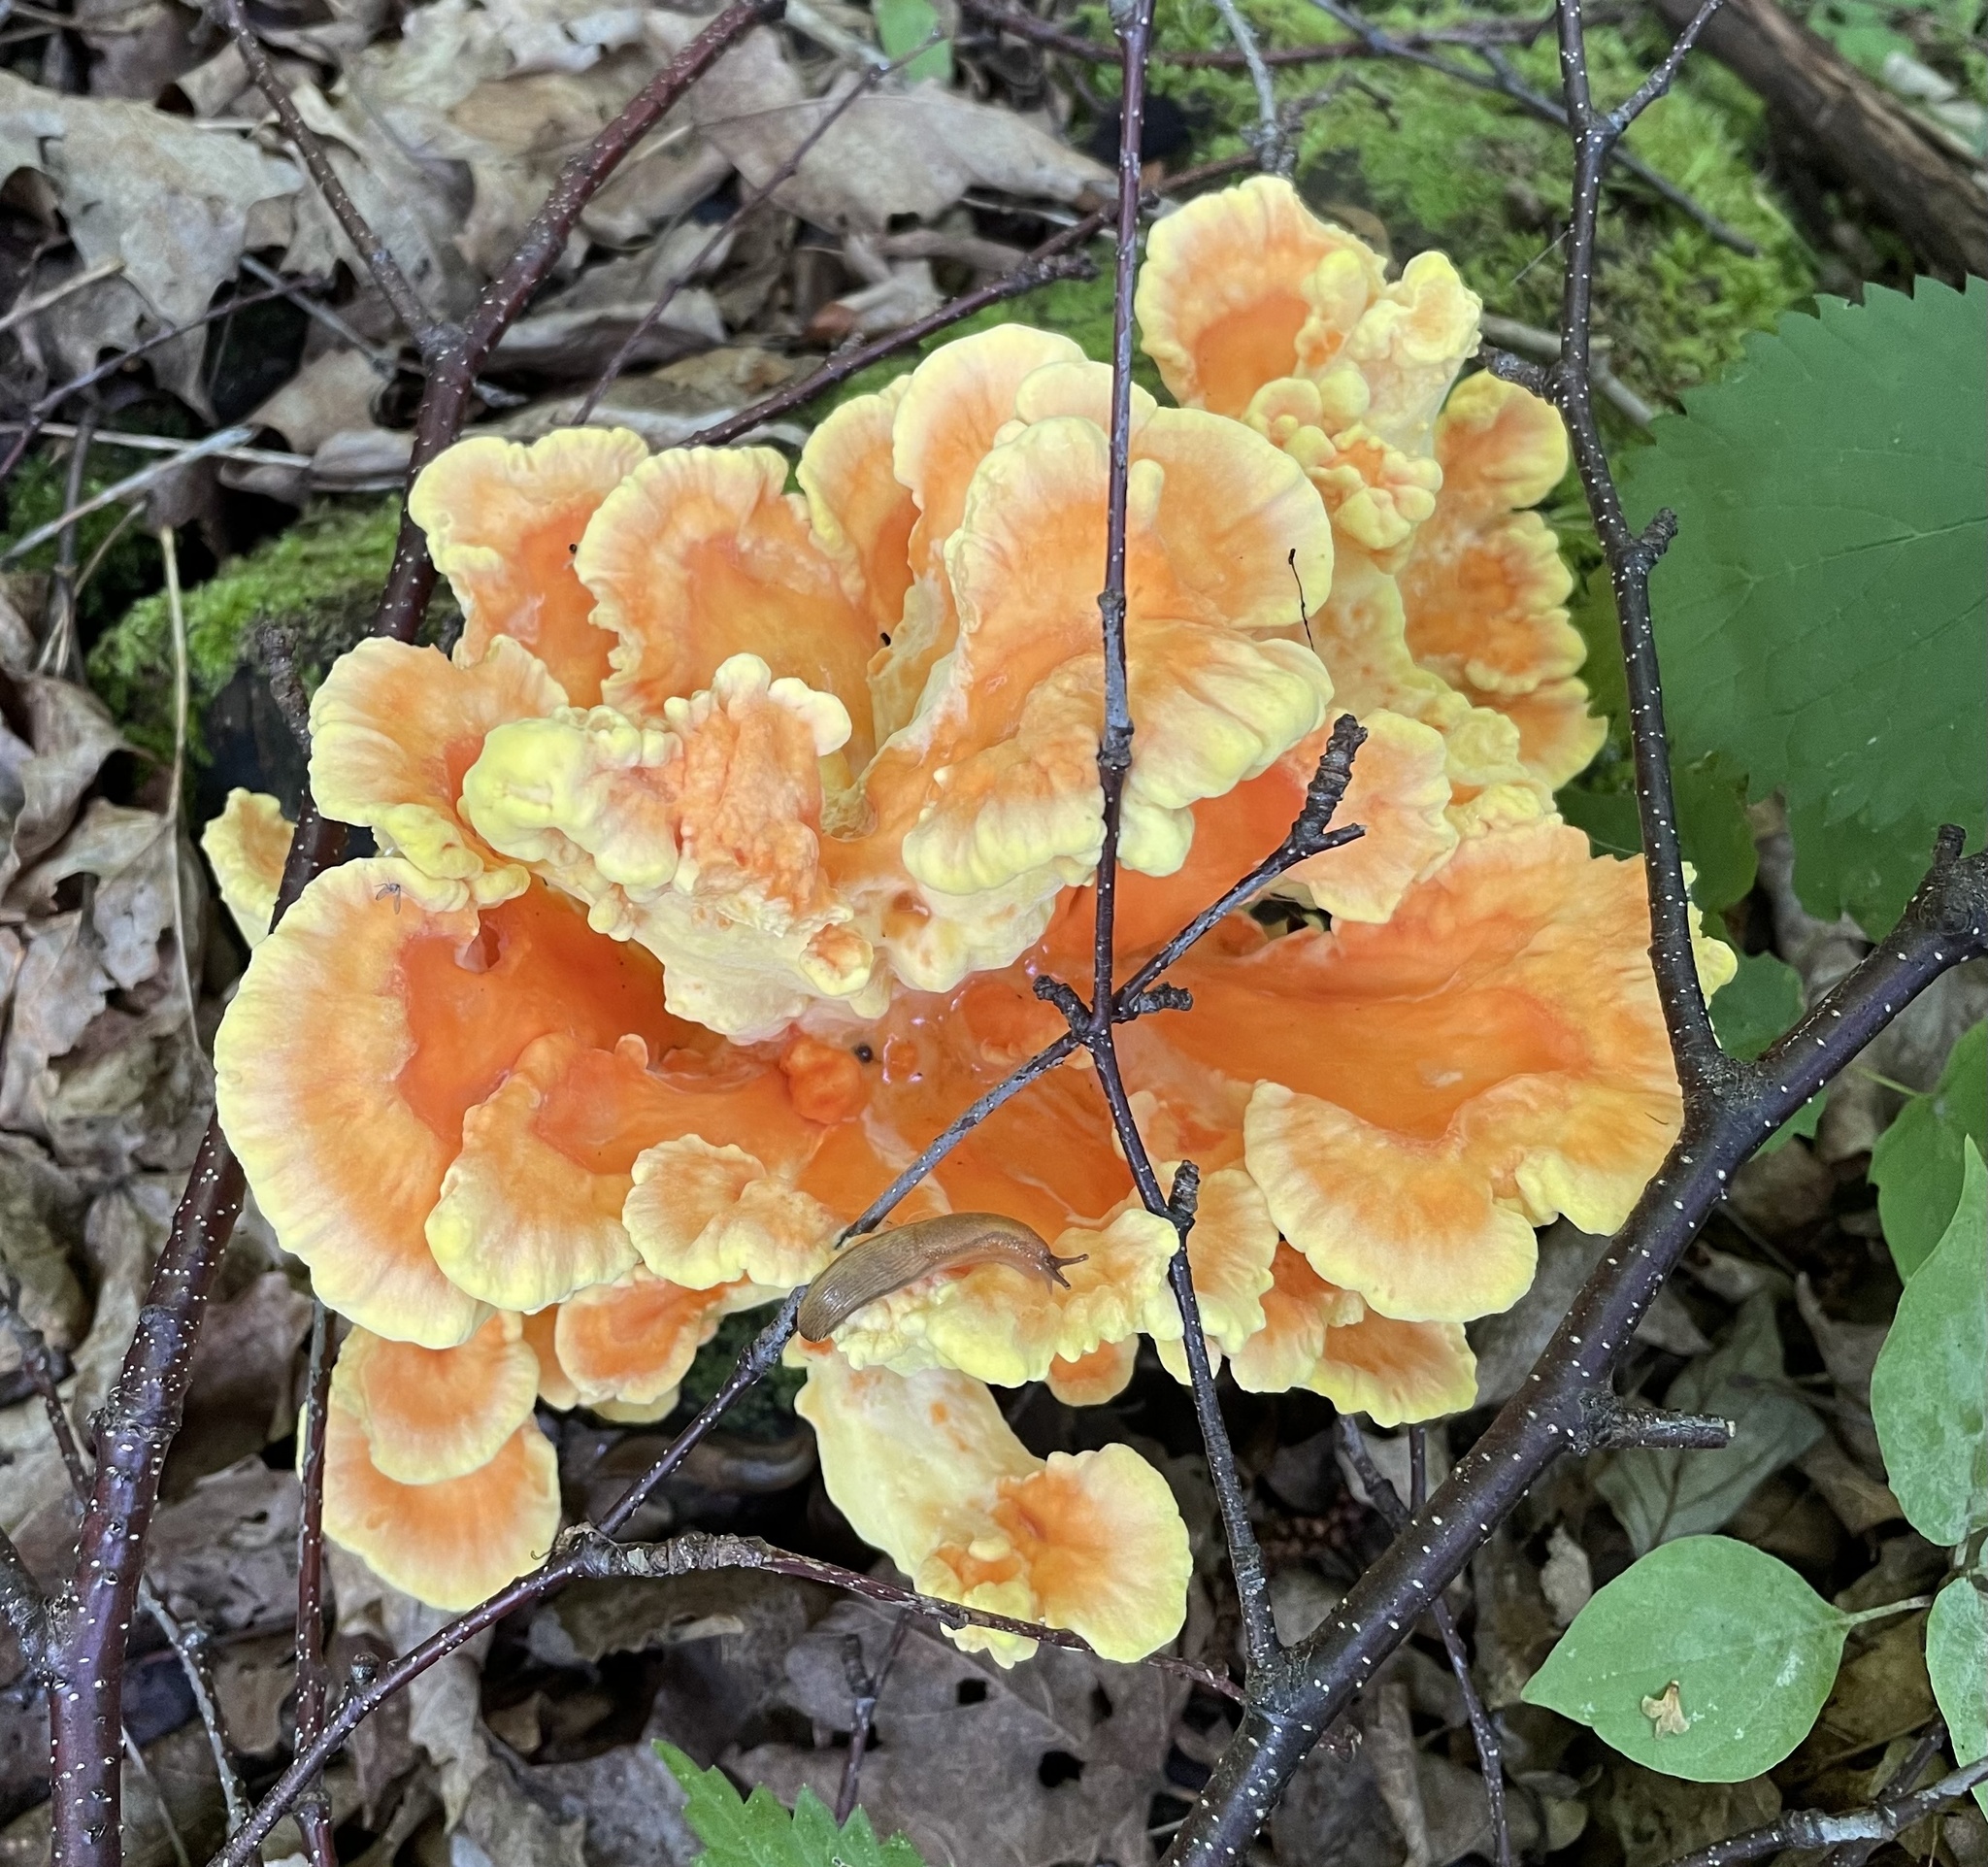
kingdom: Fungi
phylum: Basidiomycota
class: Agaricomycetes
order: Polyporales
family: Laetiporaceae
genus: Laetiporus
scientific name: Laetiporus sulphureus
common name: Chicken of the woods
